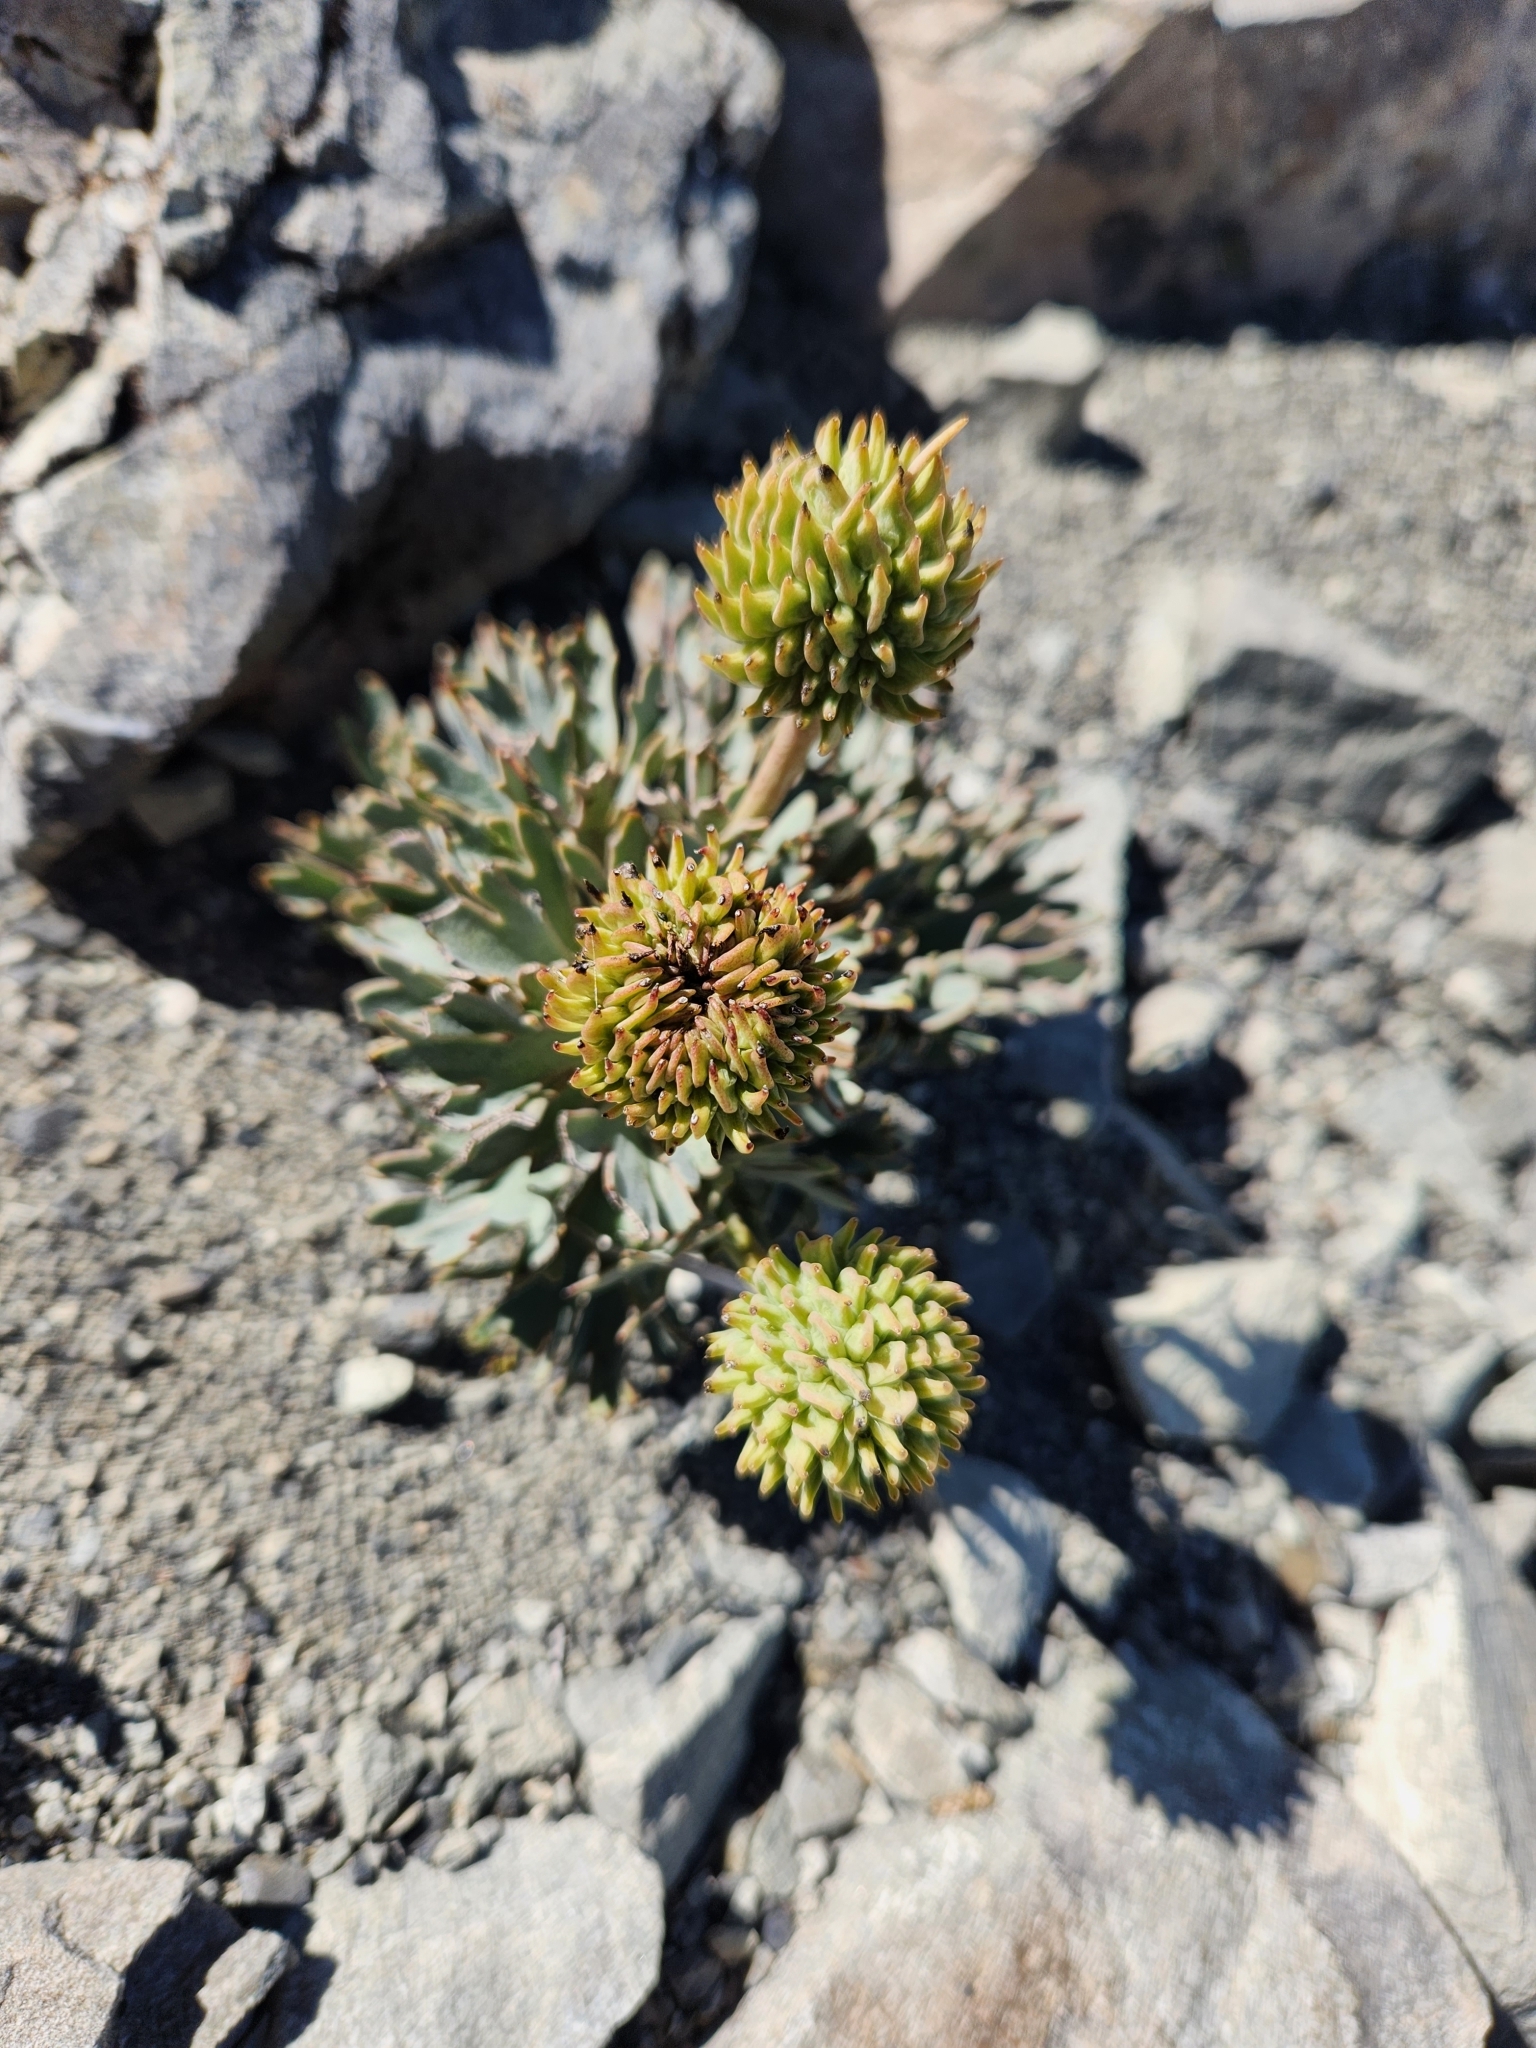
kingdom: Plantae
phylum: Tracheophyta
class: Magnoliopsida
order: Ranunculales
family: Ranunculaceae
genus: Ranunculus
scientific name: Ranunculus haastii
